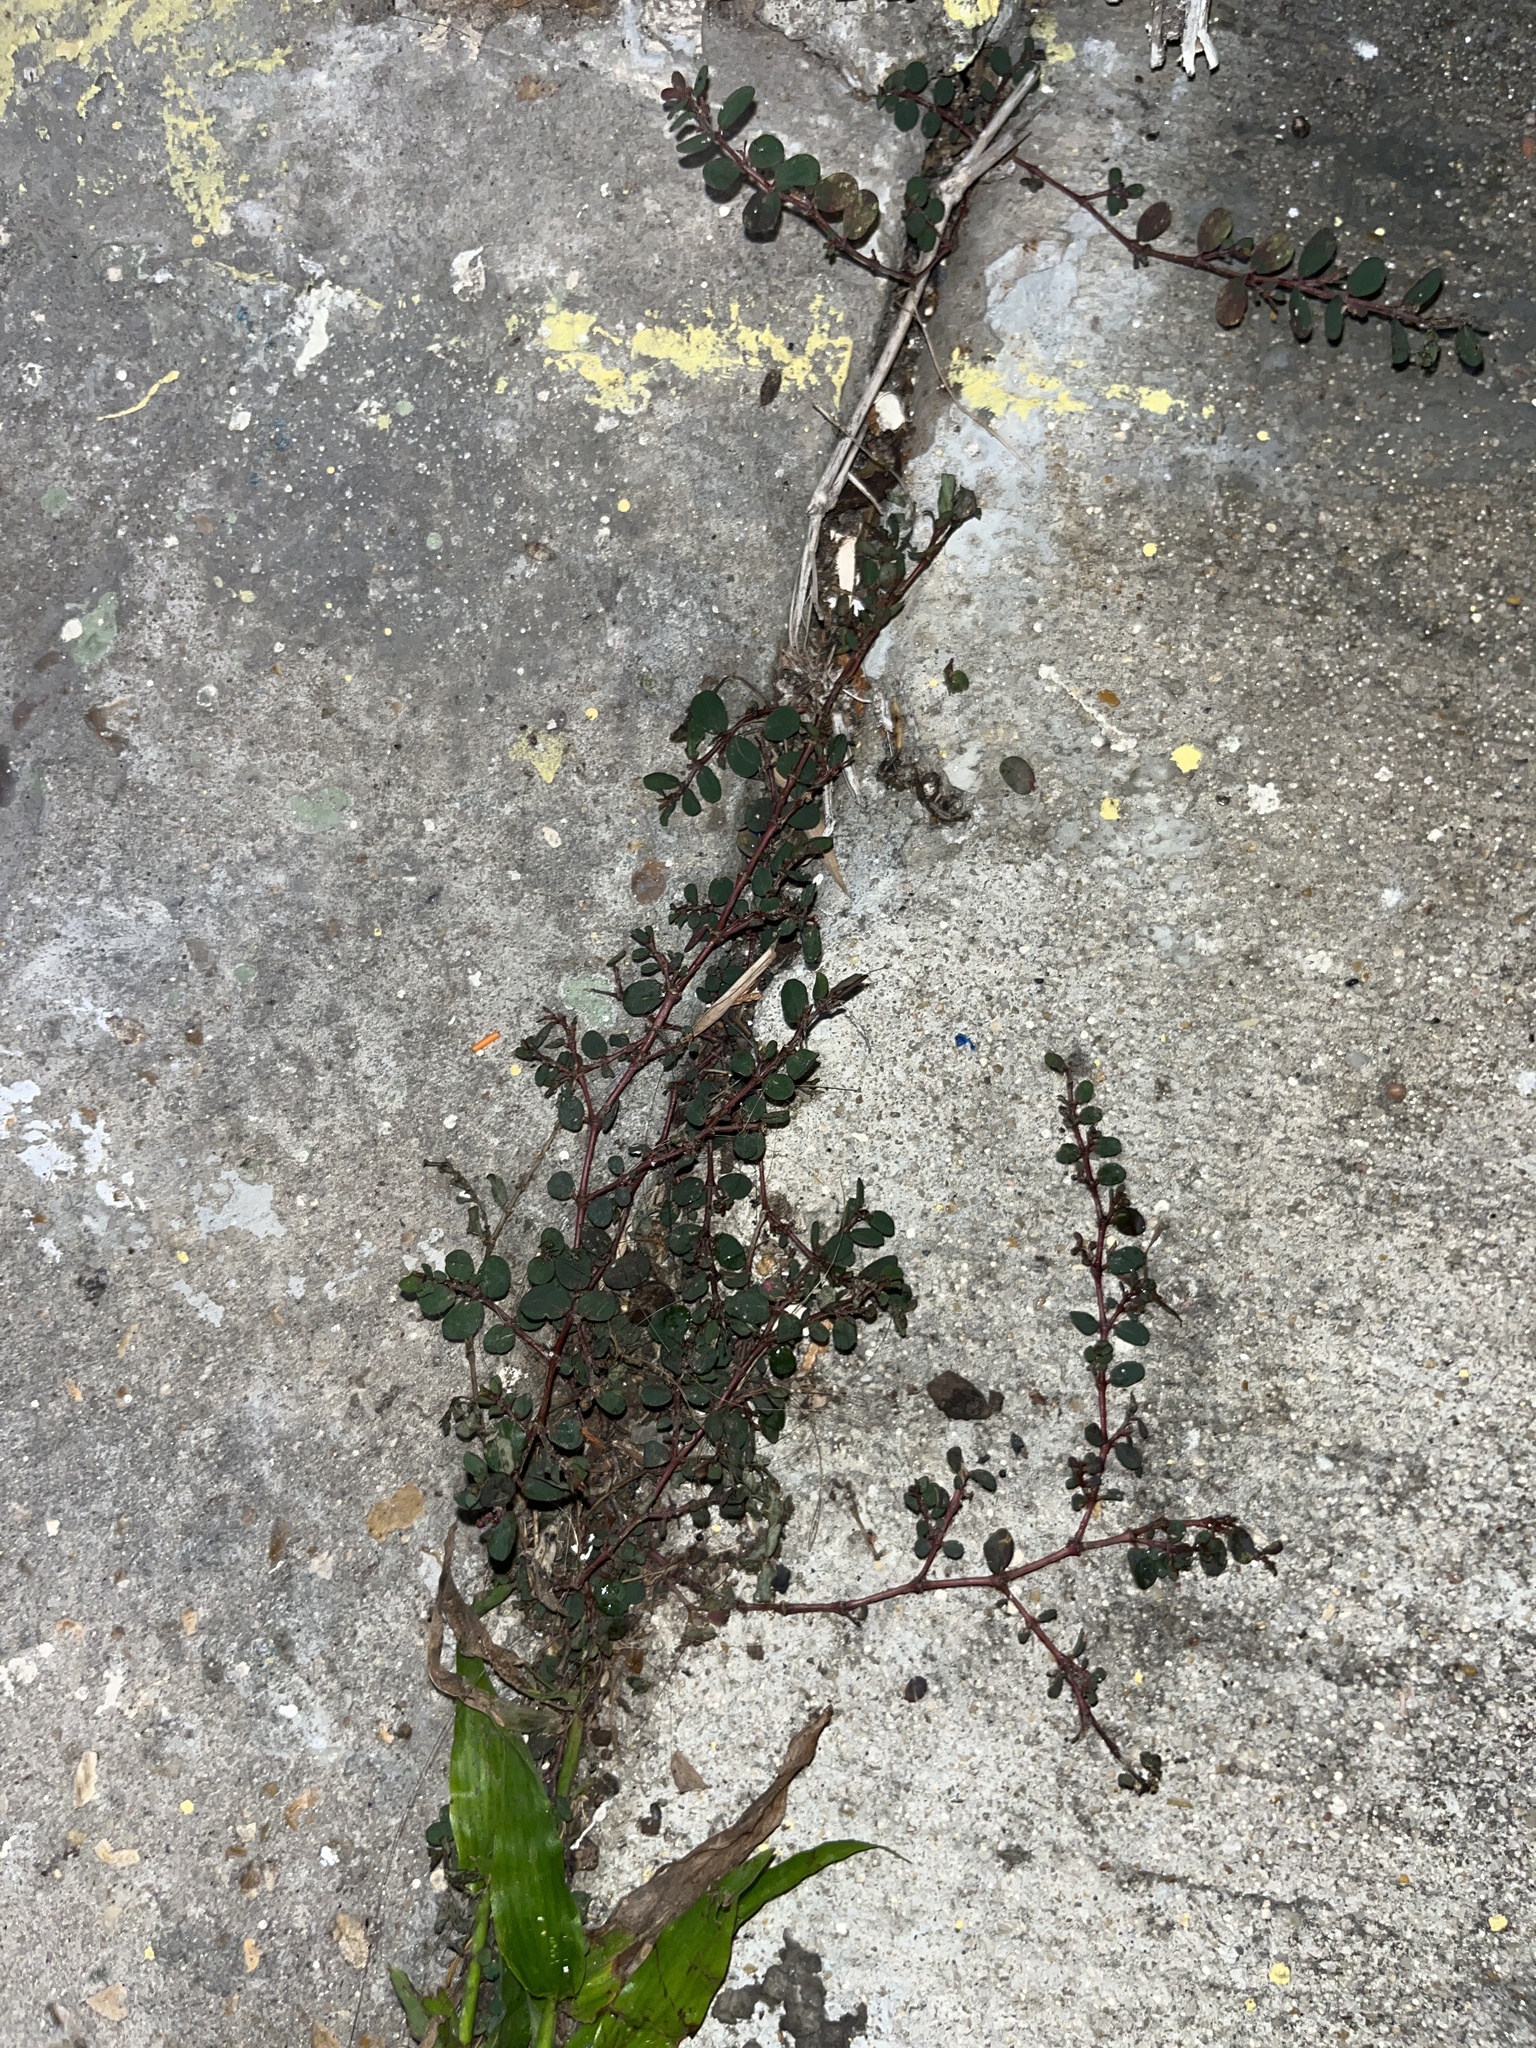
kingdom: Plantae
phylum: Tracheophyta
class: Magnoliopsida
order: Malpighiales
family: Euphorbiaceae
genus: Euphorbia
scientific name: Euphorbia prostrata
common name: Prostrate sandmat
